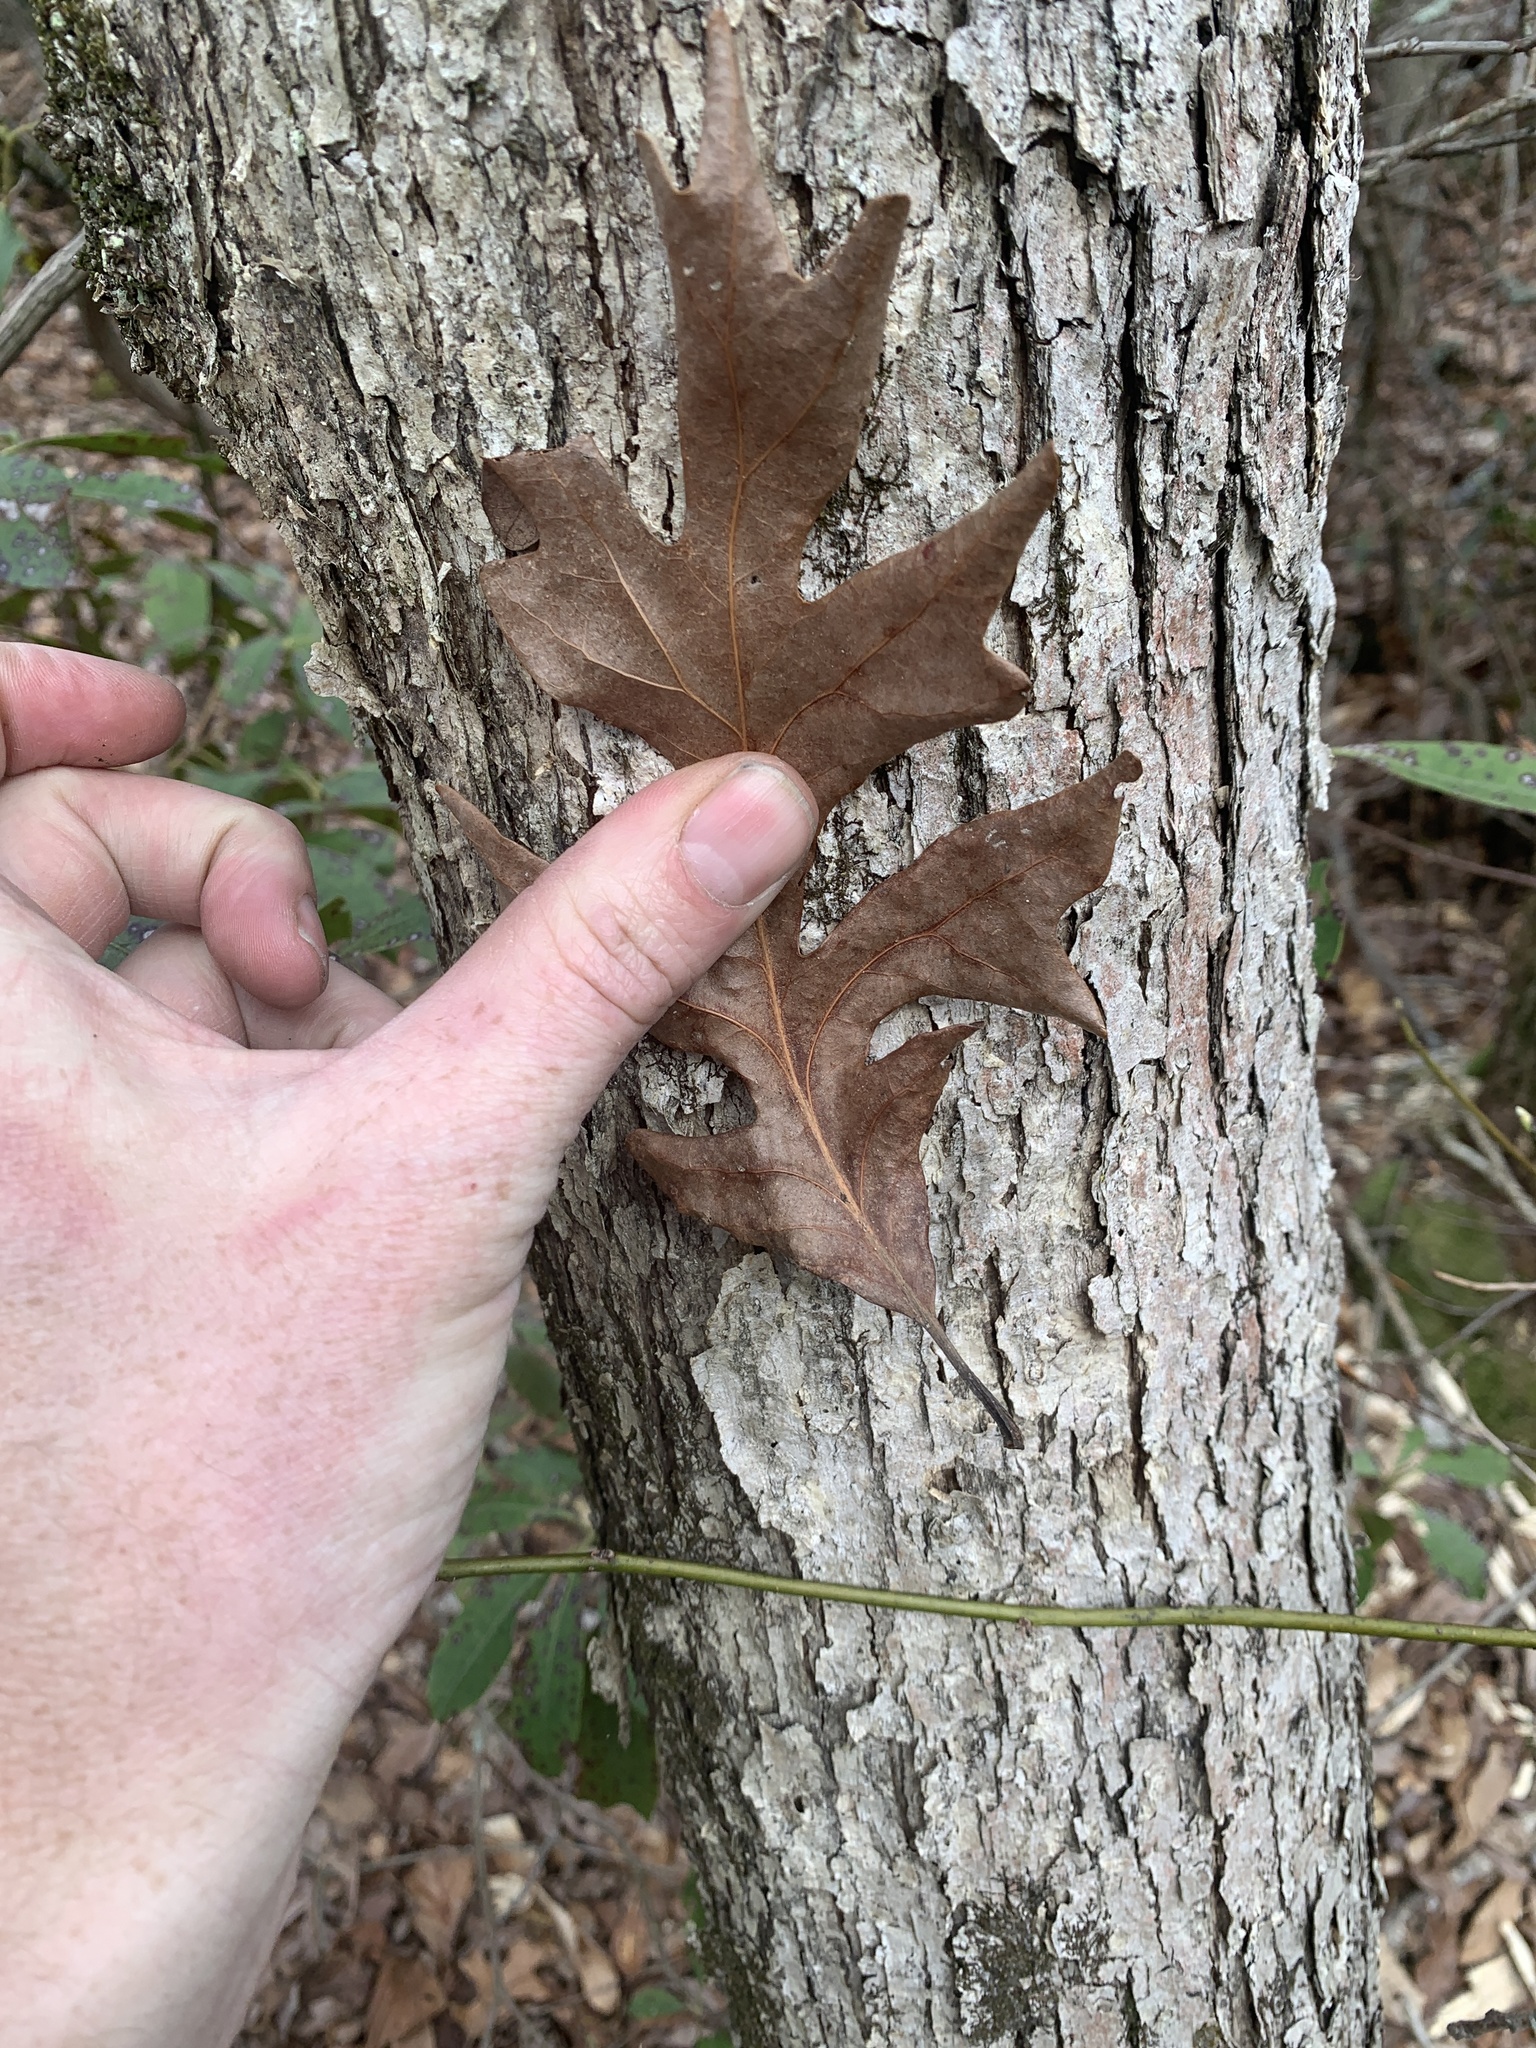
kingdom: Plantae
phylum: Tracheophyta
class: Magnoliopsida
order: Fagales
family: Fagaceae
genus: Quercus
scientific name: Quercus alba
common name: White oak
